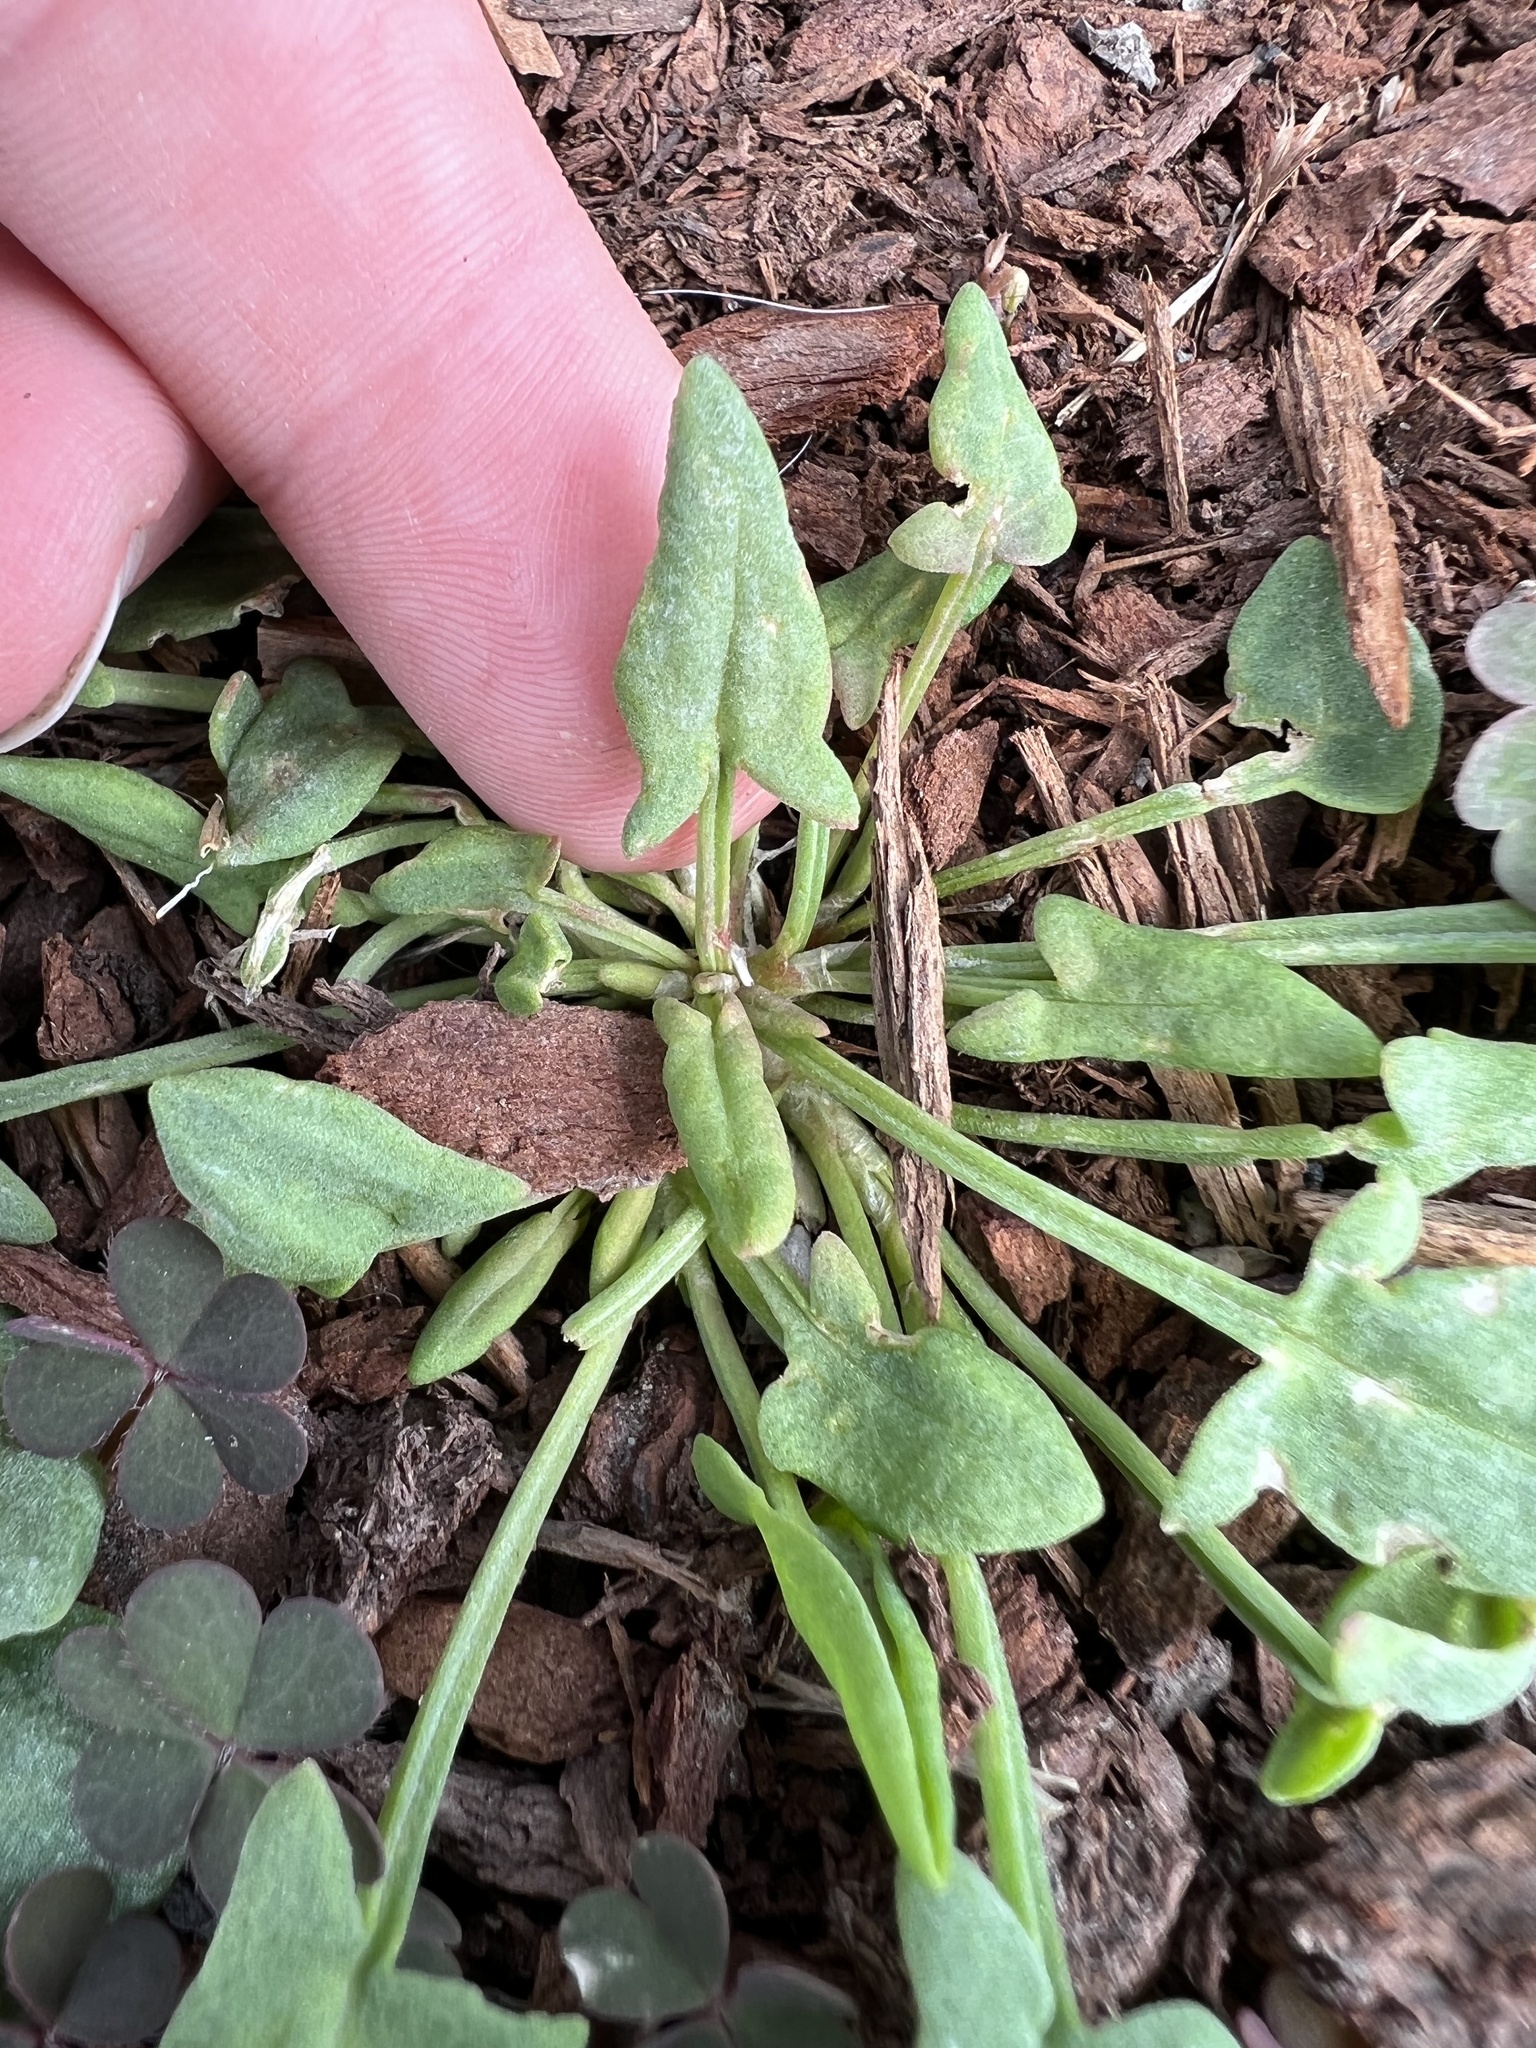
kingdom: Plantae
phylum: Tracheophyta
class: Magnoliopsida
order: Caryophyllales
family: Polygonaceae
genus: Rumex
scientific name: Rumex acetosella
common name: Common sheep sorrel
